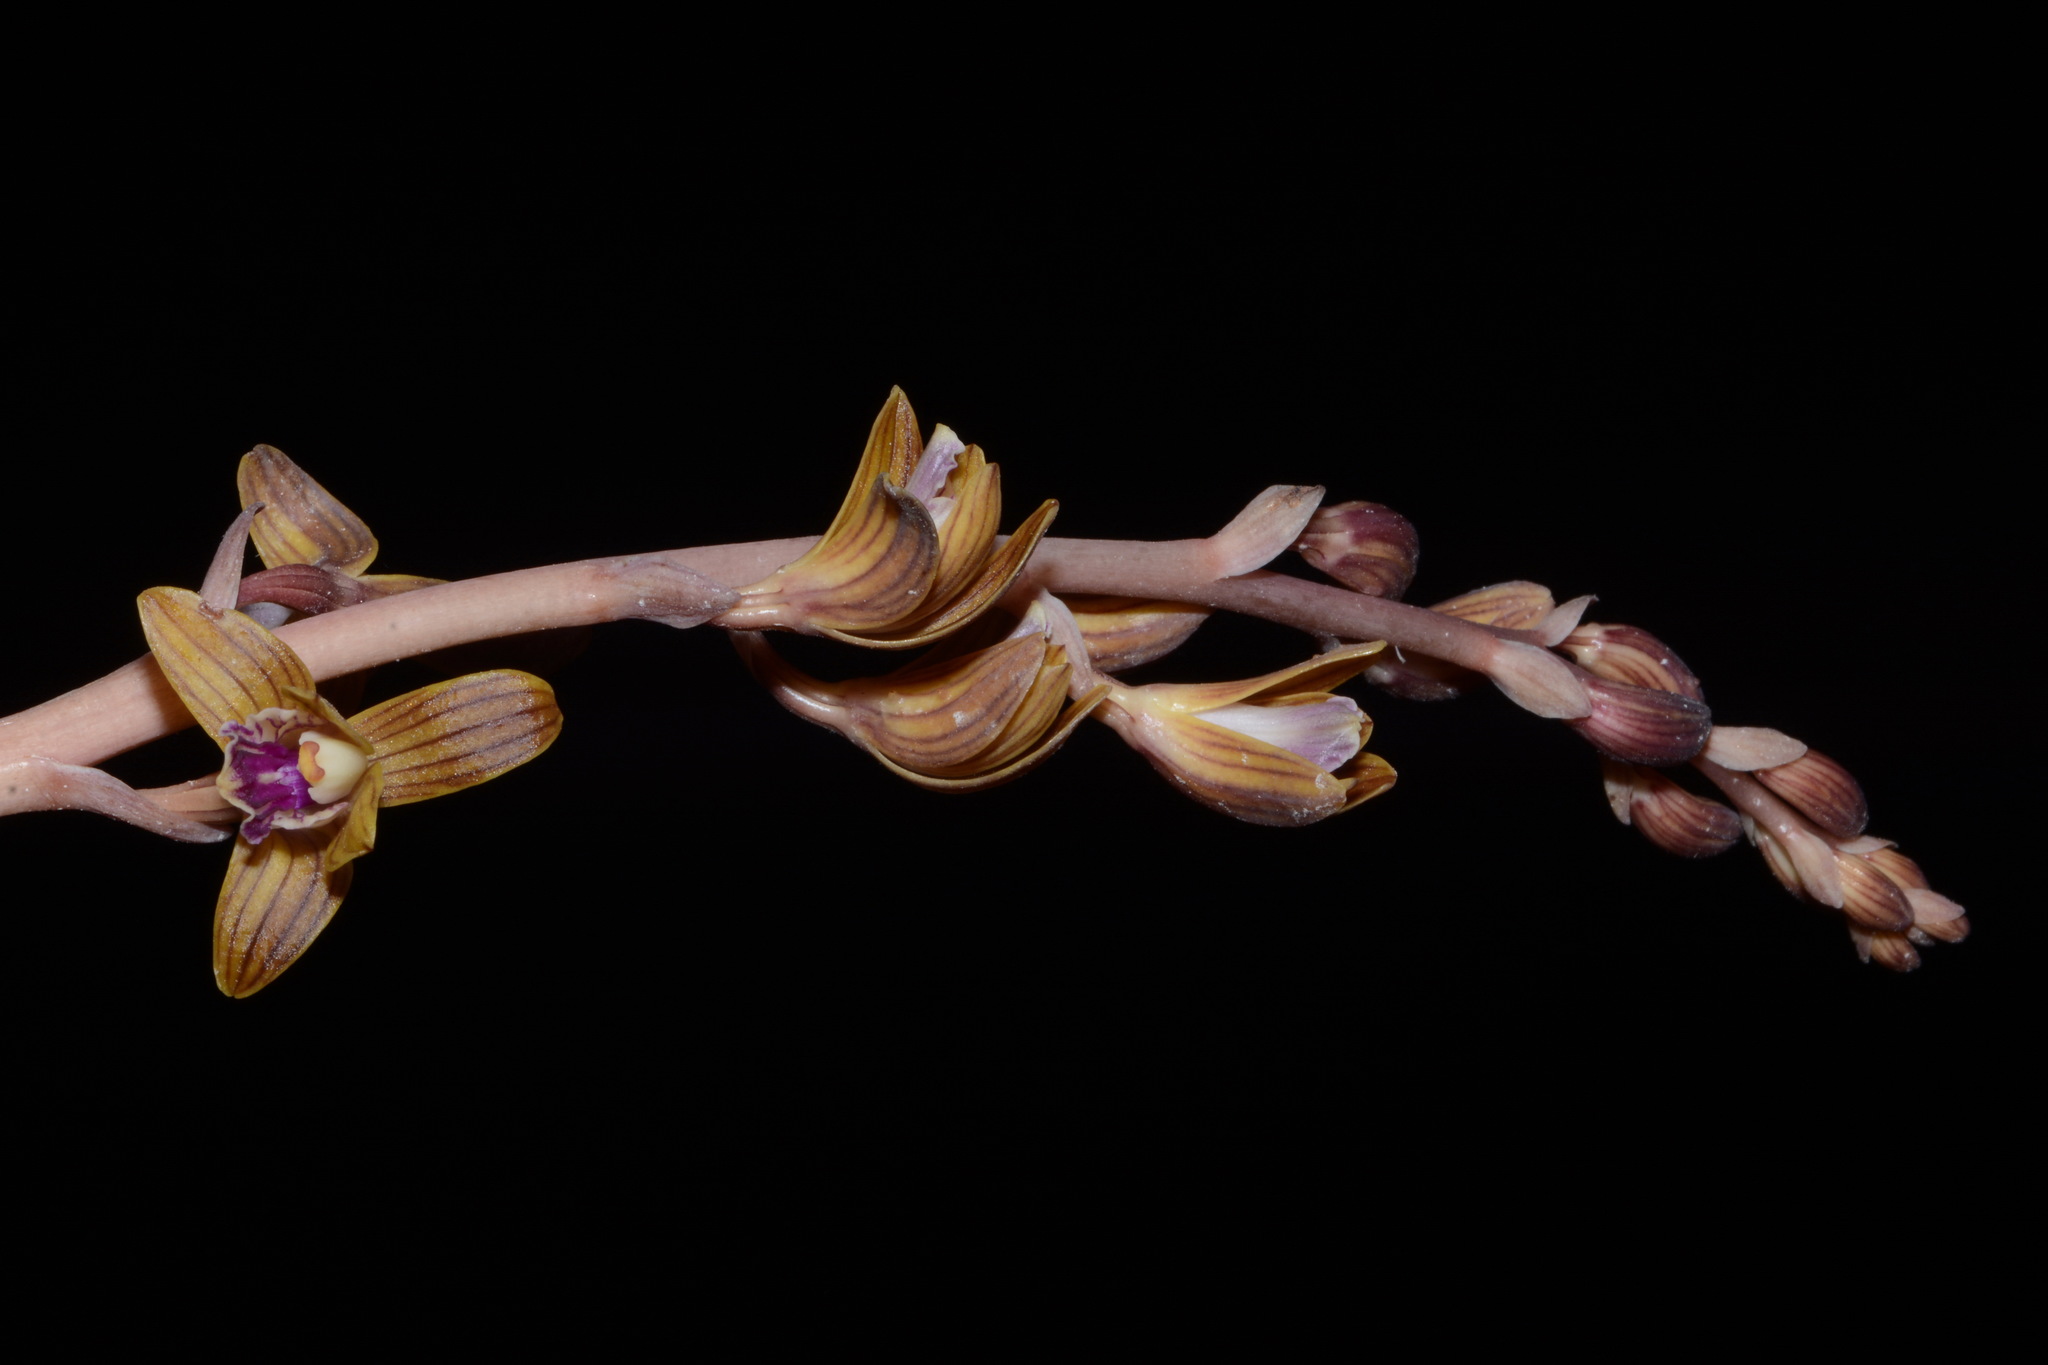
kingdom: Plantae
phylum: Tracheophyta
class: Liliopsida
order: Asparagales
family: Orchidaceae
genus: Bletia
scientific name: Bletia spicata
